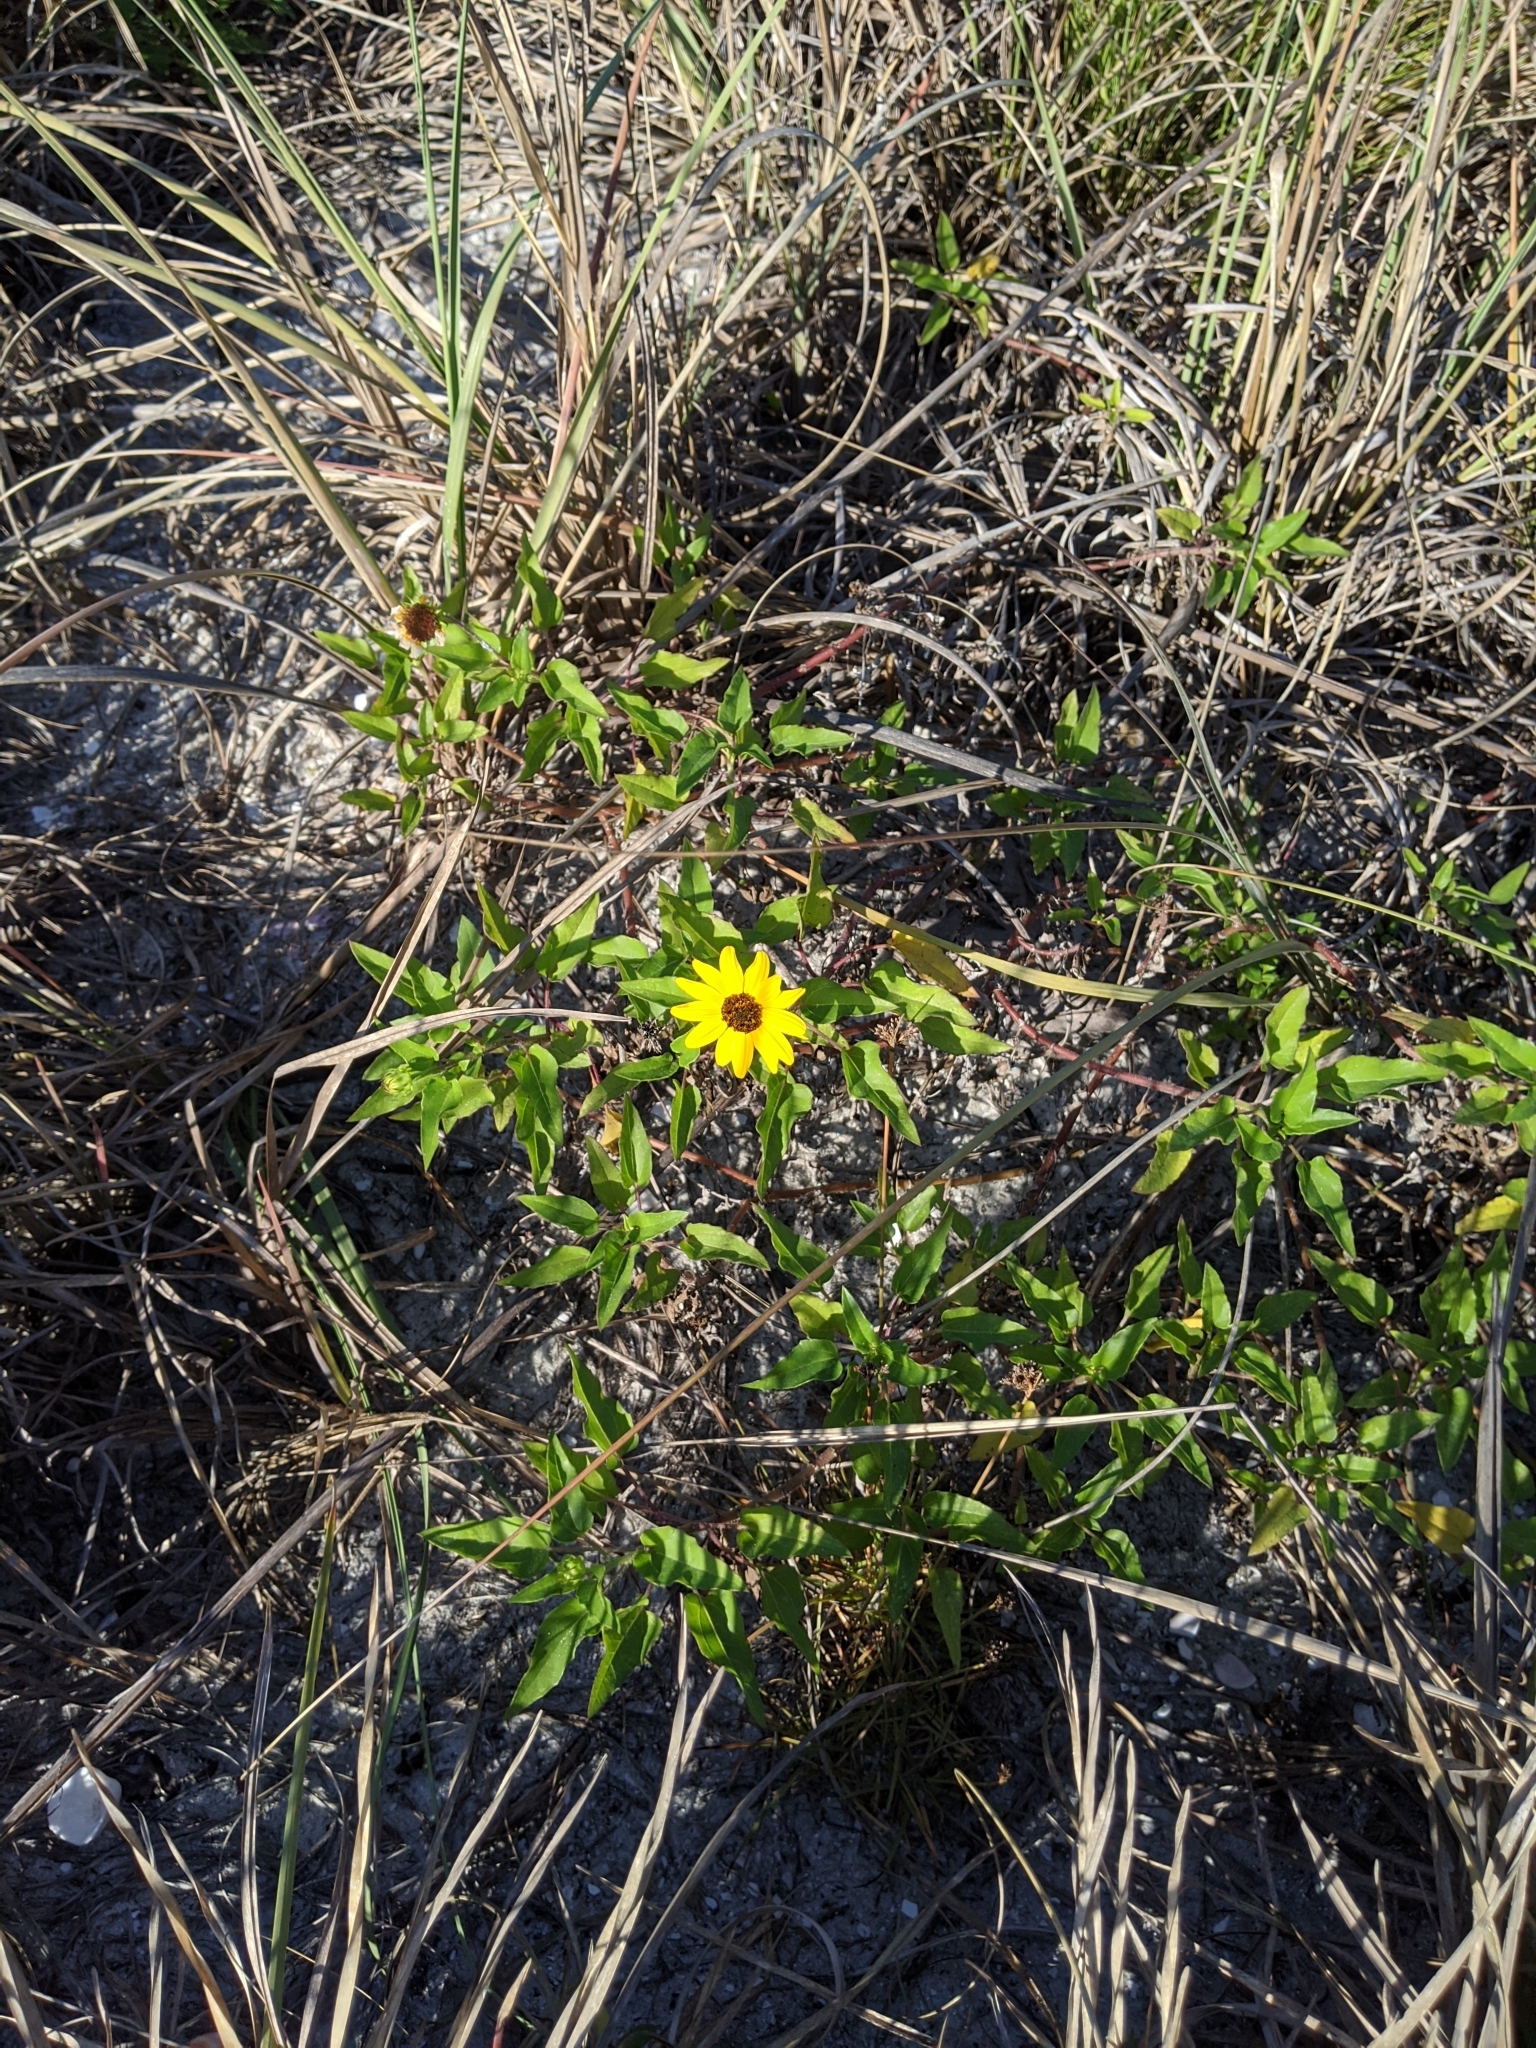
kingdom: Plantae
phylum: Tracheophyta
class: Magnoliopsida
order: Asterales
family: Asteraceae
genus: Helianthus
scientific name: Helianthus debilis
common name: Weak sunflower
